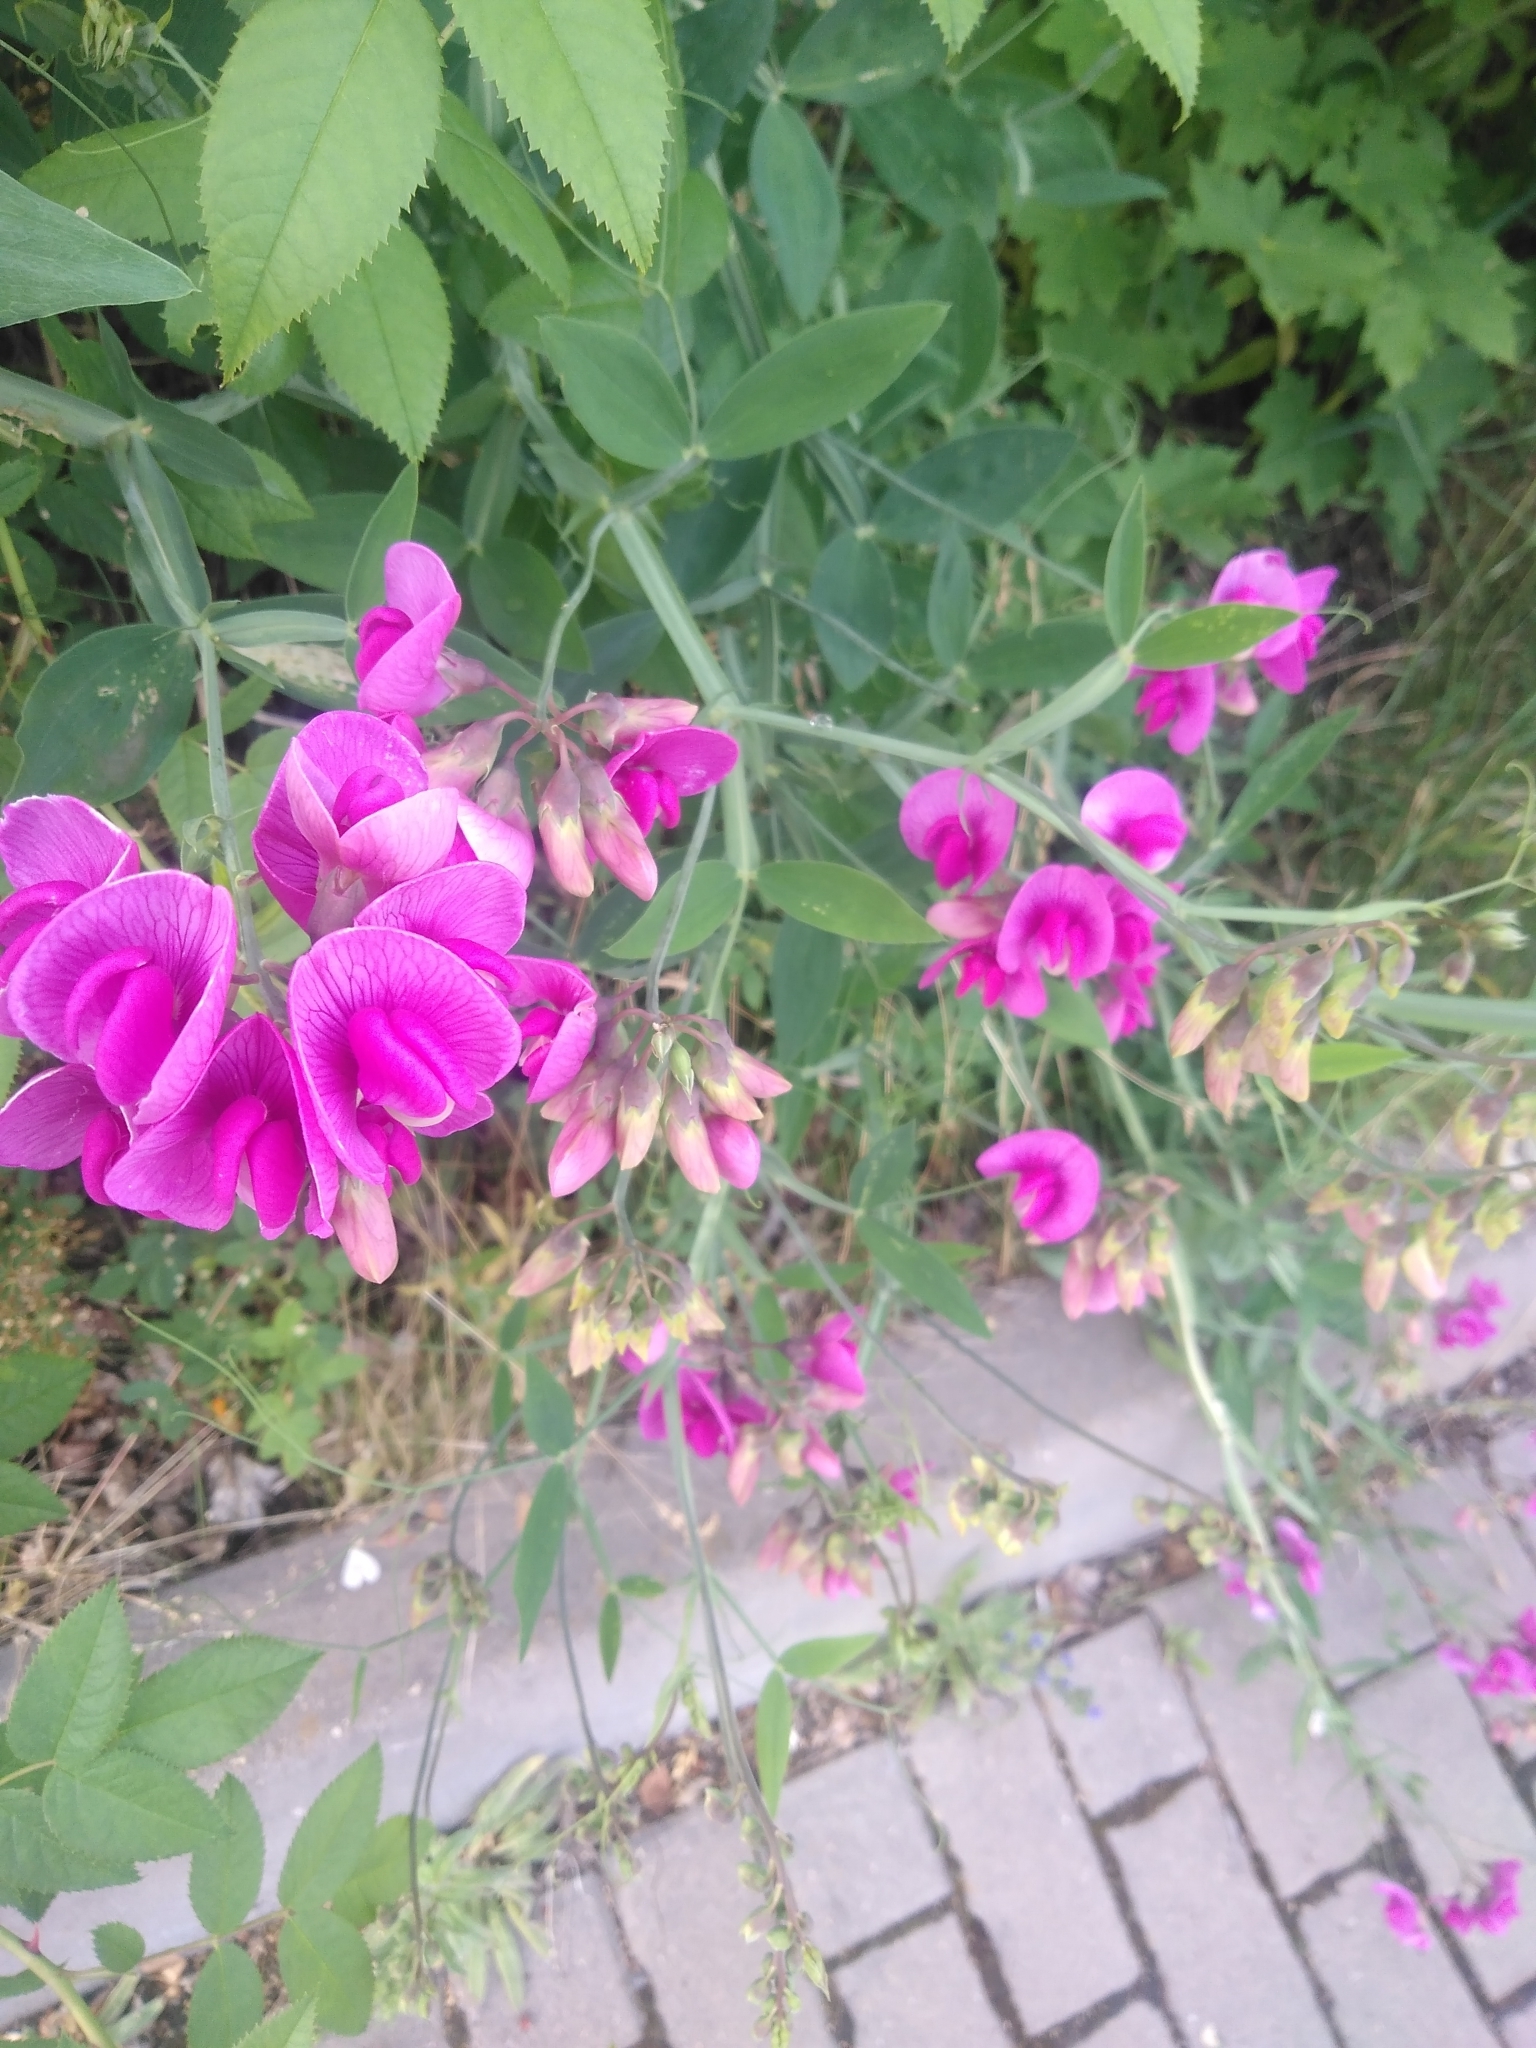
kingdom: Plantae
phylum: Tracheophyta
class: Magnoliopsida
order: Fabales
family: Fabaceae
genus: Lathyrus
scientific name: Lathyrus latifolius
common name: Perennial pea
